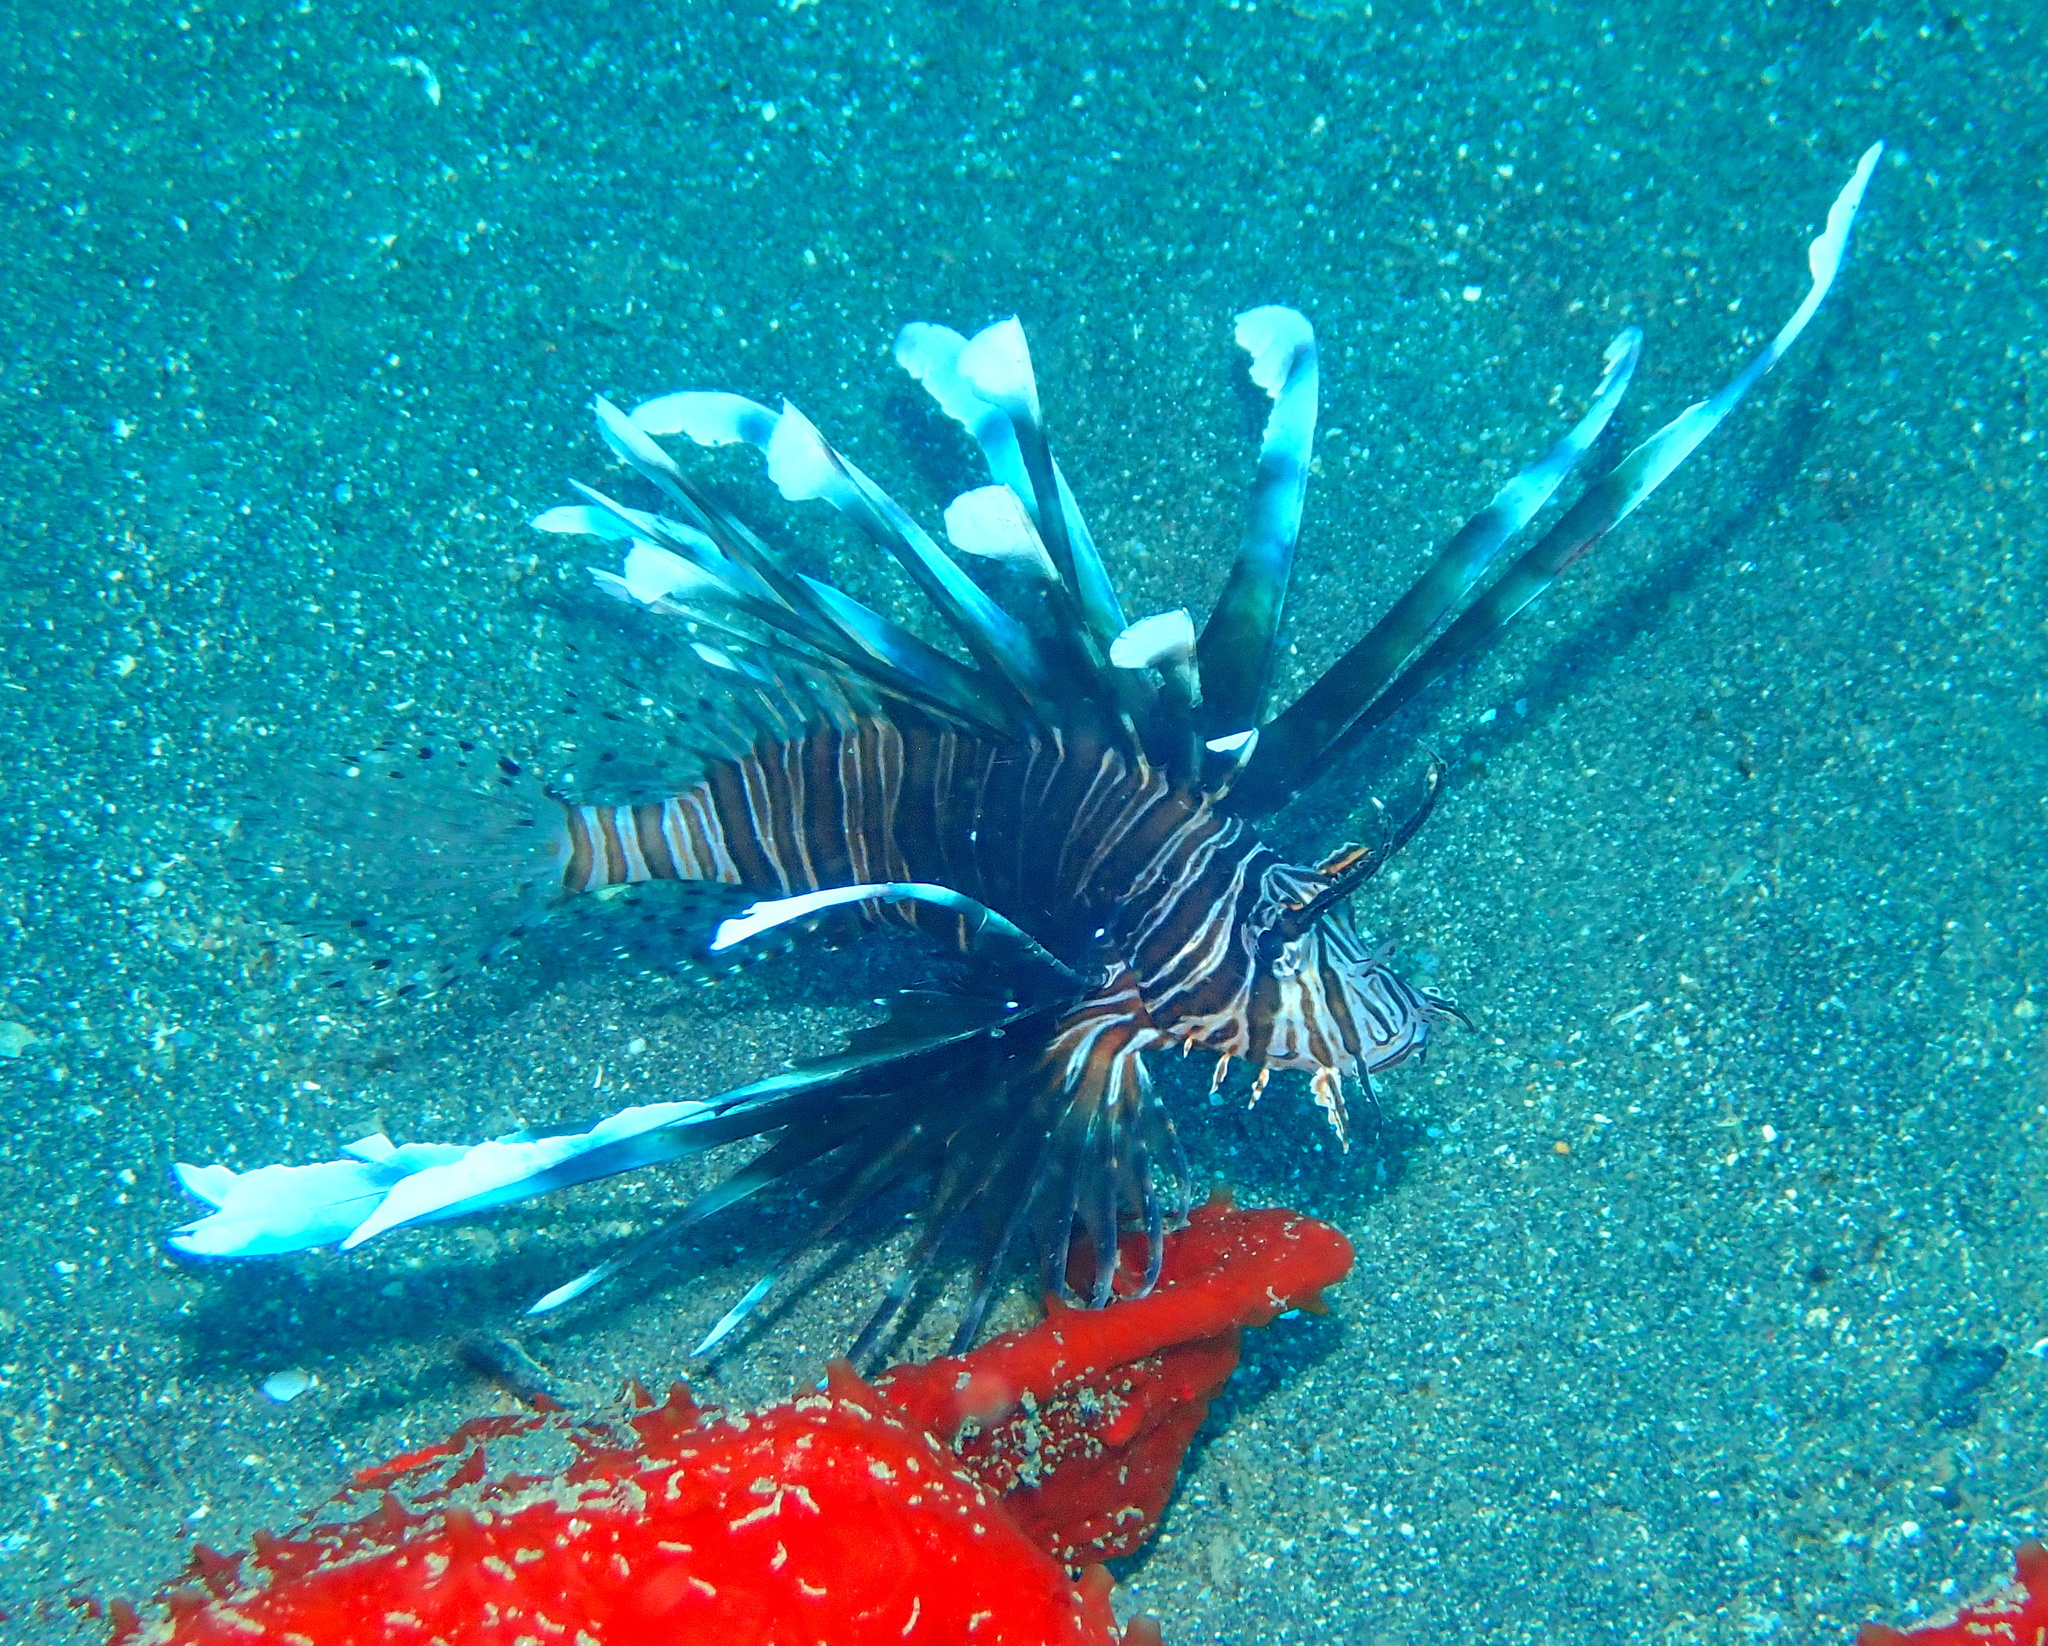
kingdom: Animalia
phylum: Chordata
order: Scorpaeniformes
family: Scorpaenidae
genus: Pterois
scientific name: Pterois volitans
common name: Lionfish
